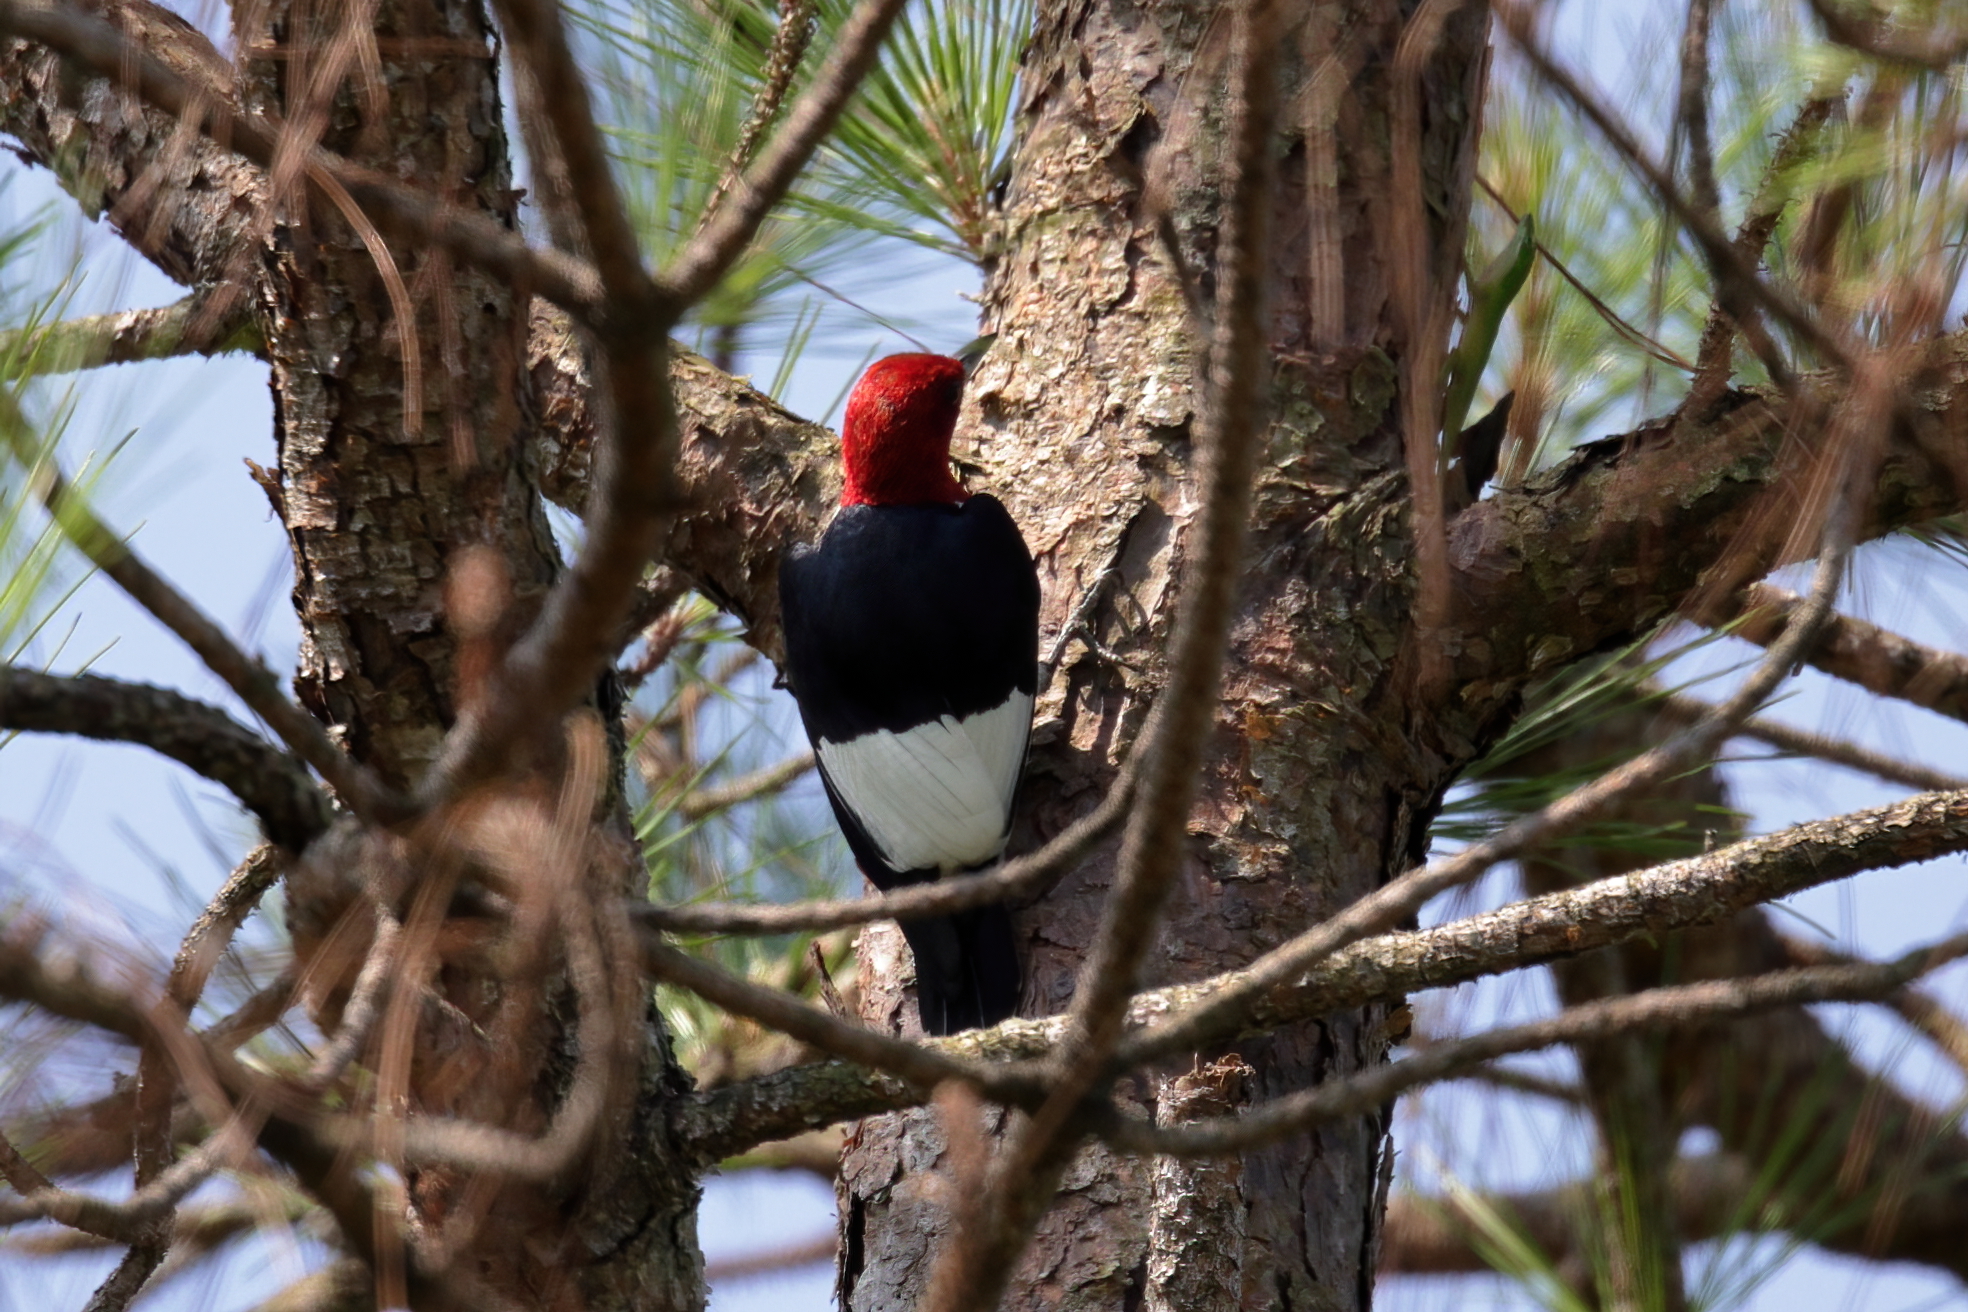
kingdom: Animalia
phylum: Chordata
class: Aves
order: Piciformes
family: Picidae
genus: Melanerpes
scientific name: Melanerpes erythrocephalus
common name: Red-headed woodpecker
